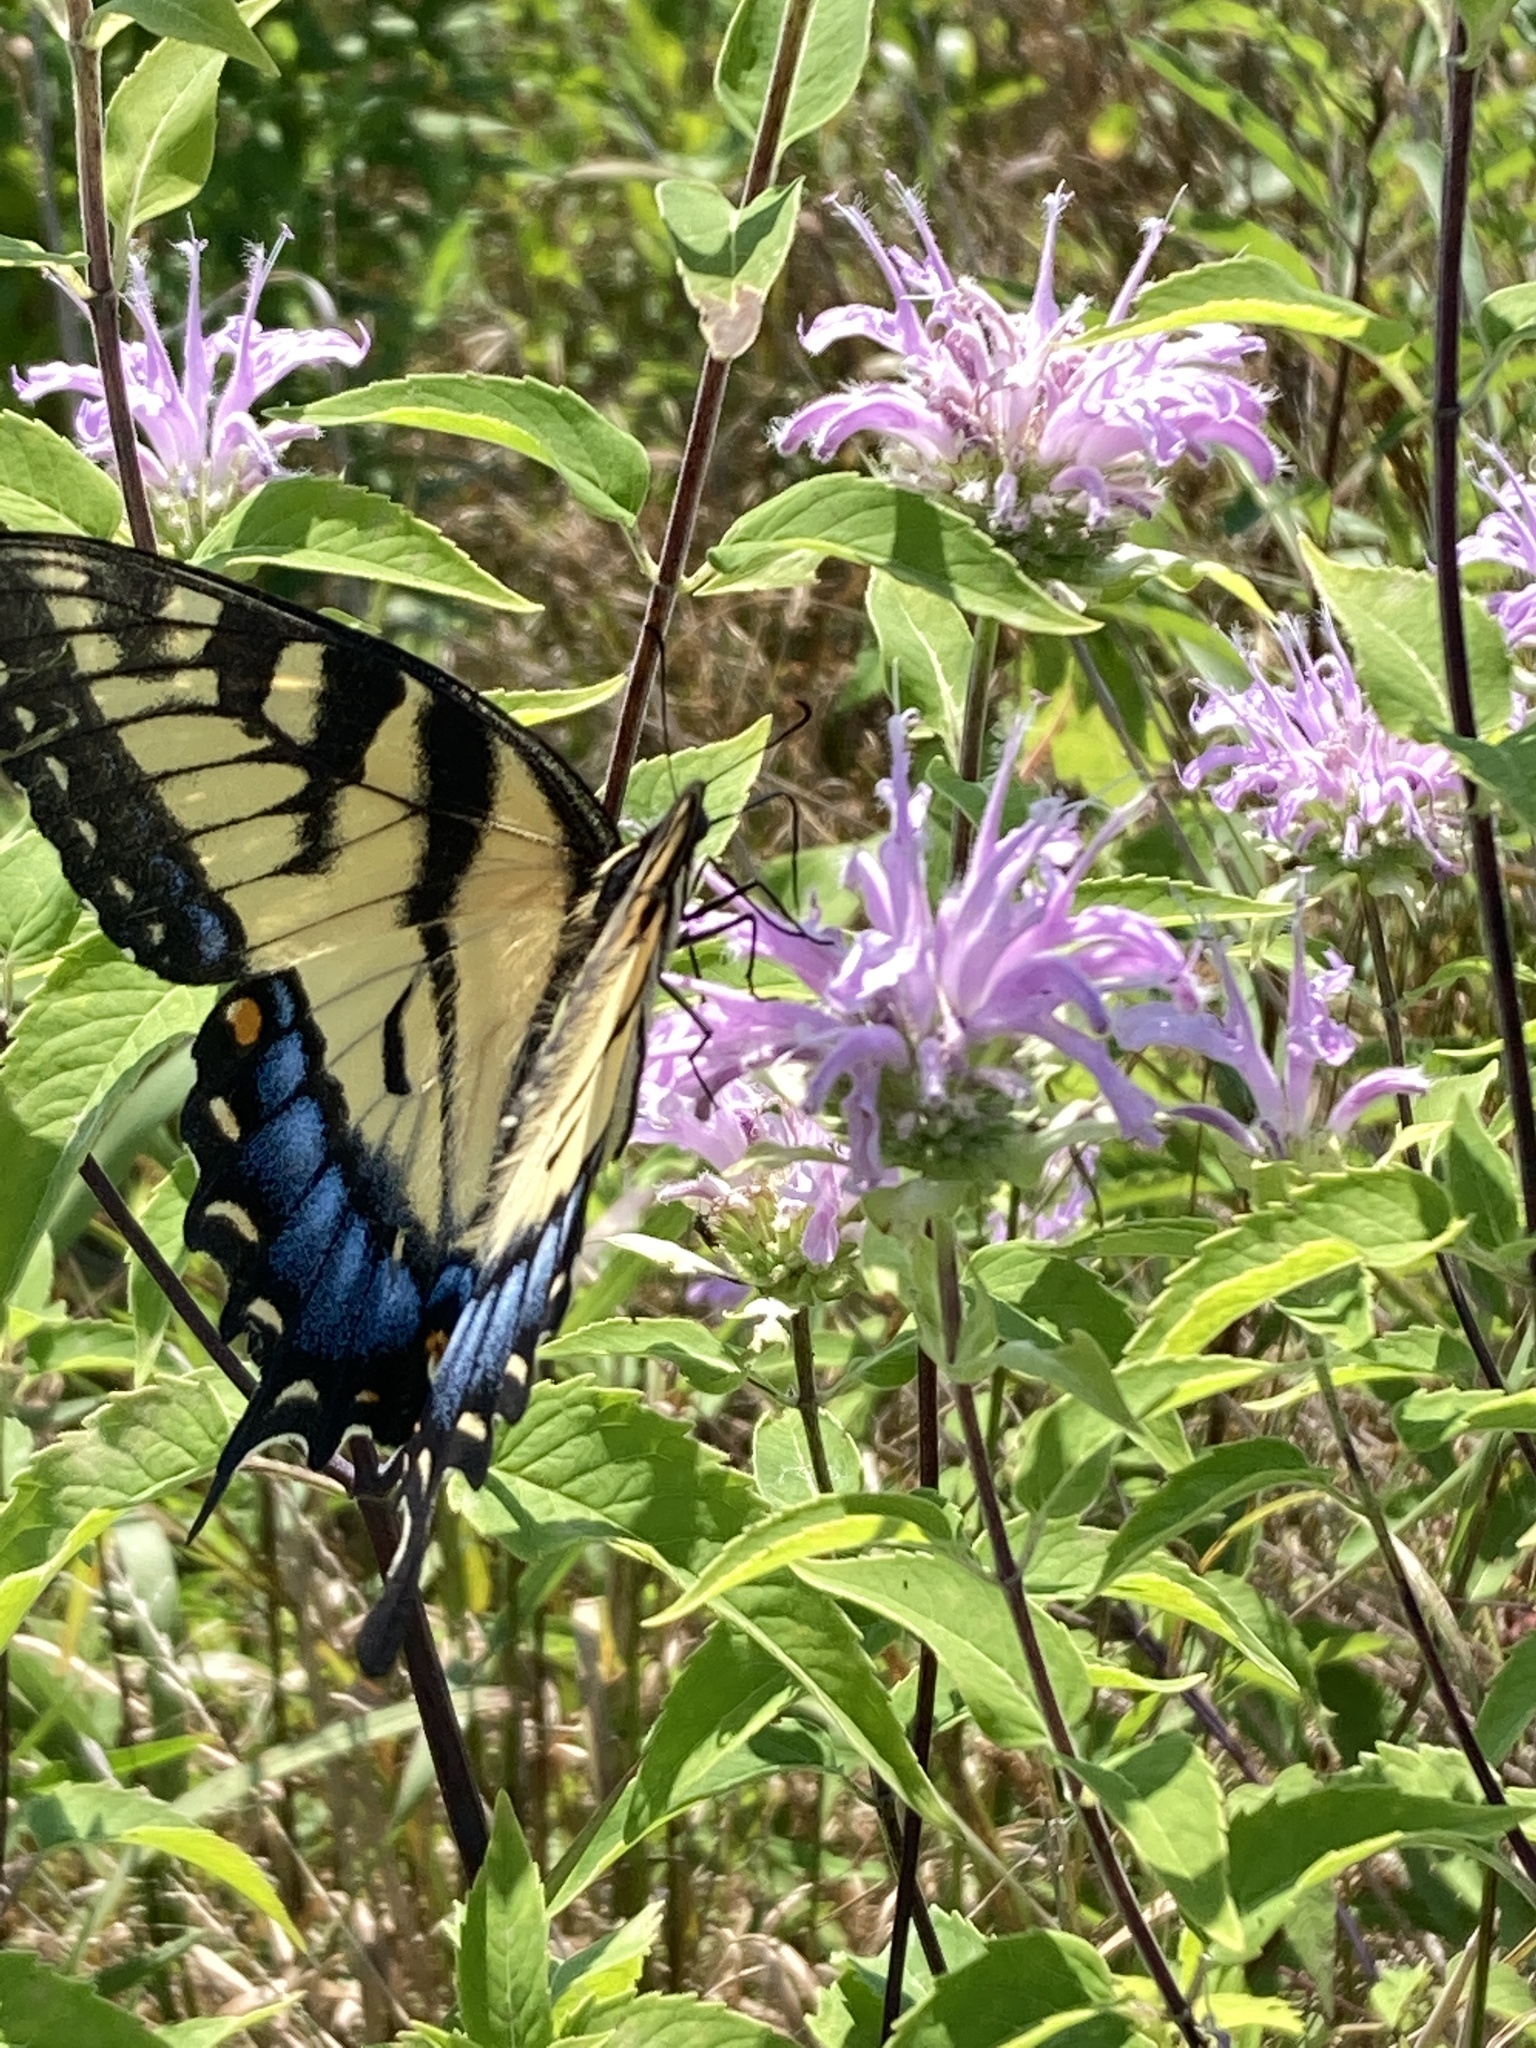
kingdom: Animalia
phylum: Arthropoda
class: Insecta
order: Lepidoptera
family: Papilionidae
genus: Papilio
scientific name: Papilio glaucus
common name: Tiger swallowtail
